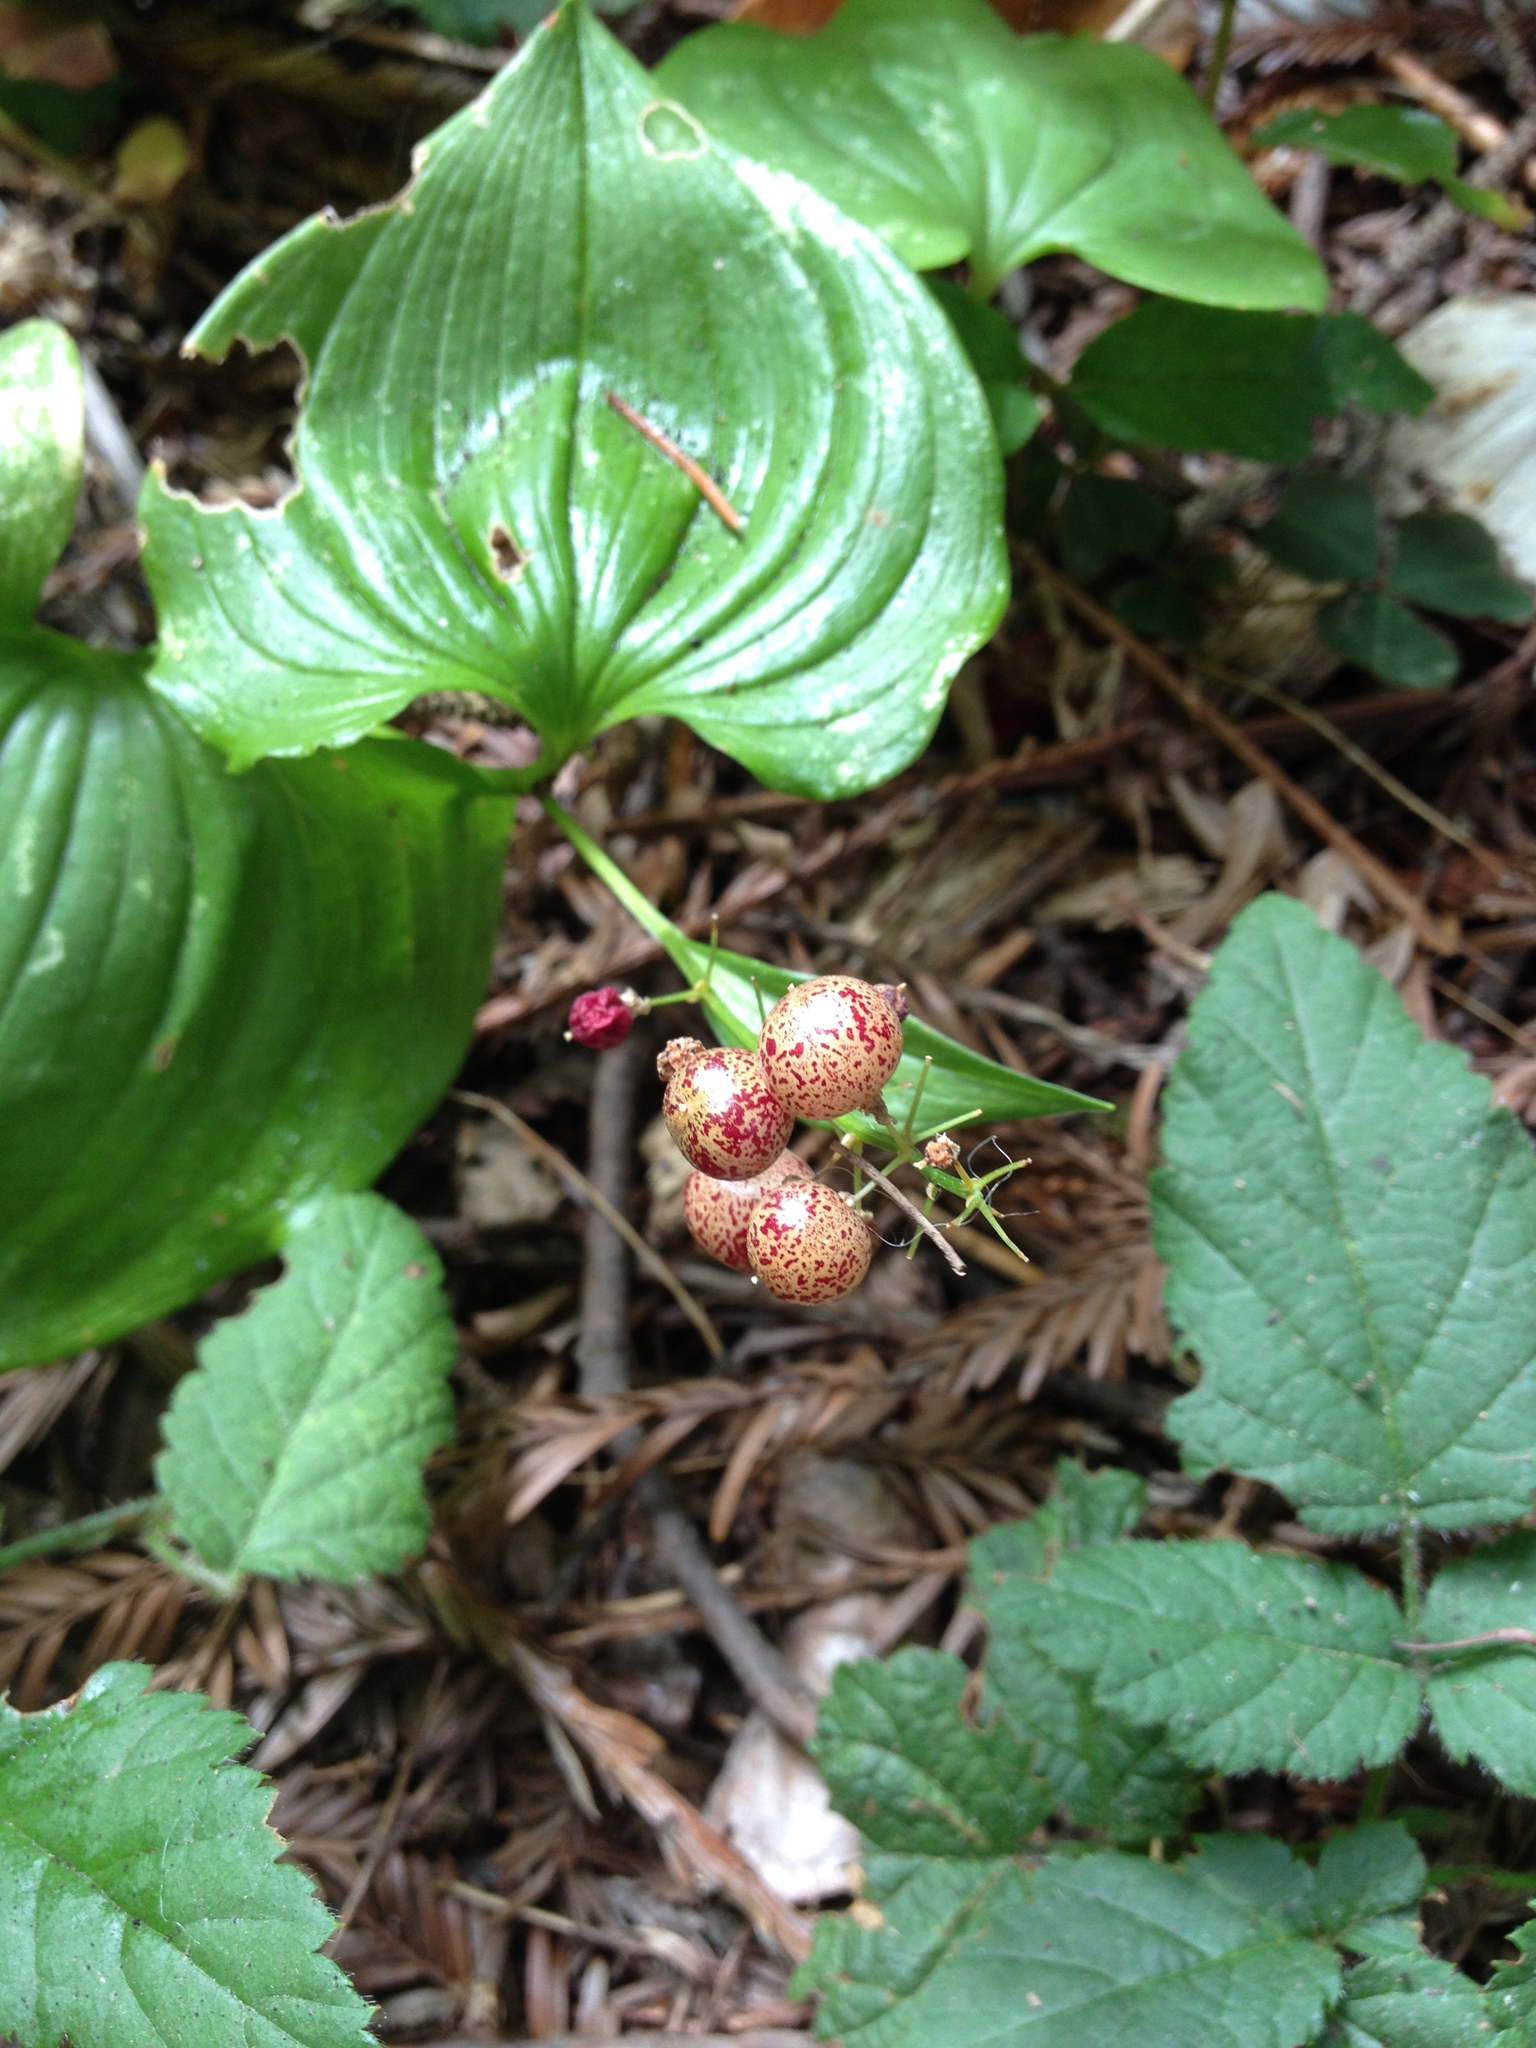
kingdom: Plantae
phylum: Tracheophyta
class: Liliopsida
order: Asparagales
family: Asparagaceae
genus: Maianthemum
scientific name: Maianthemum dilatatum
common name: False lily-of-the-valley
